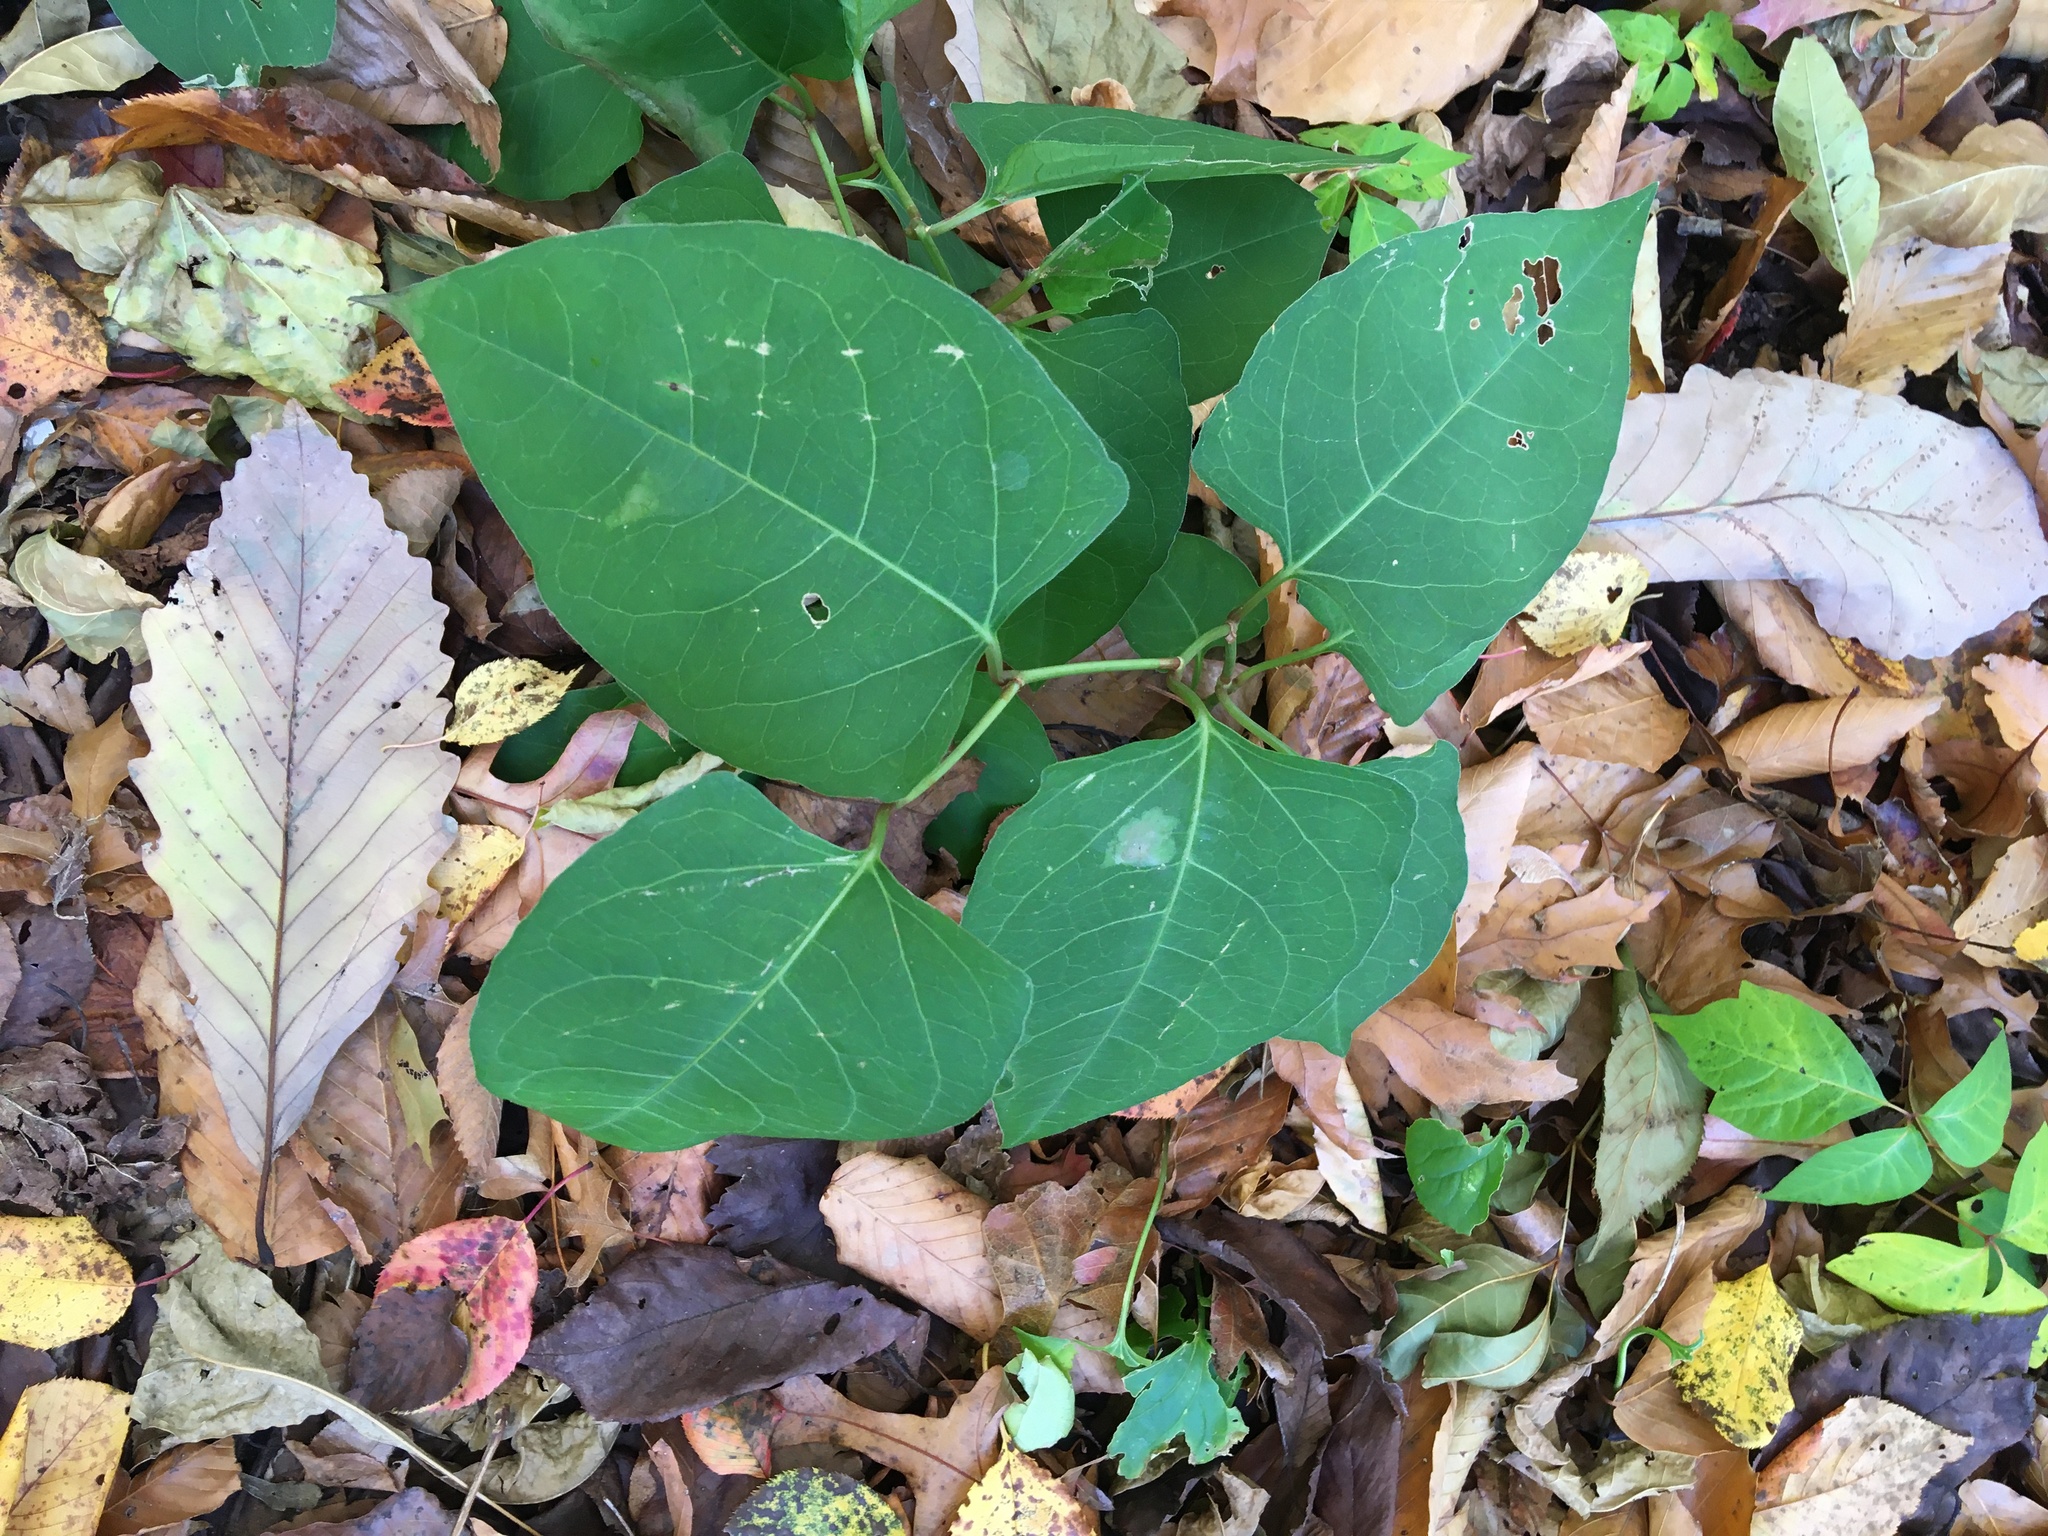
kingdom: Plantae
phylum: Tracheophyta
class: Magnoliopsida
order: Caryophyllales
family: Polygonaceae
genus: Reynoutria
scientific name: Reynoutria japonica
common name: Japanese knotweed
